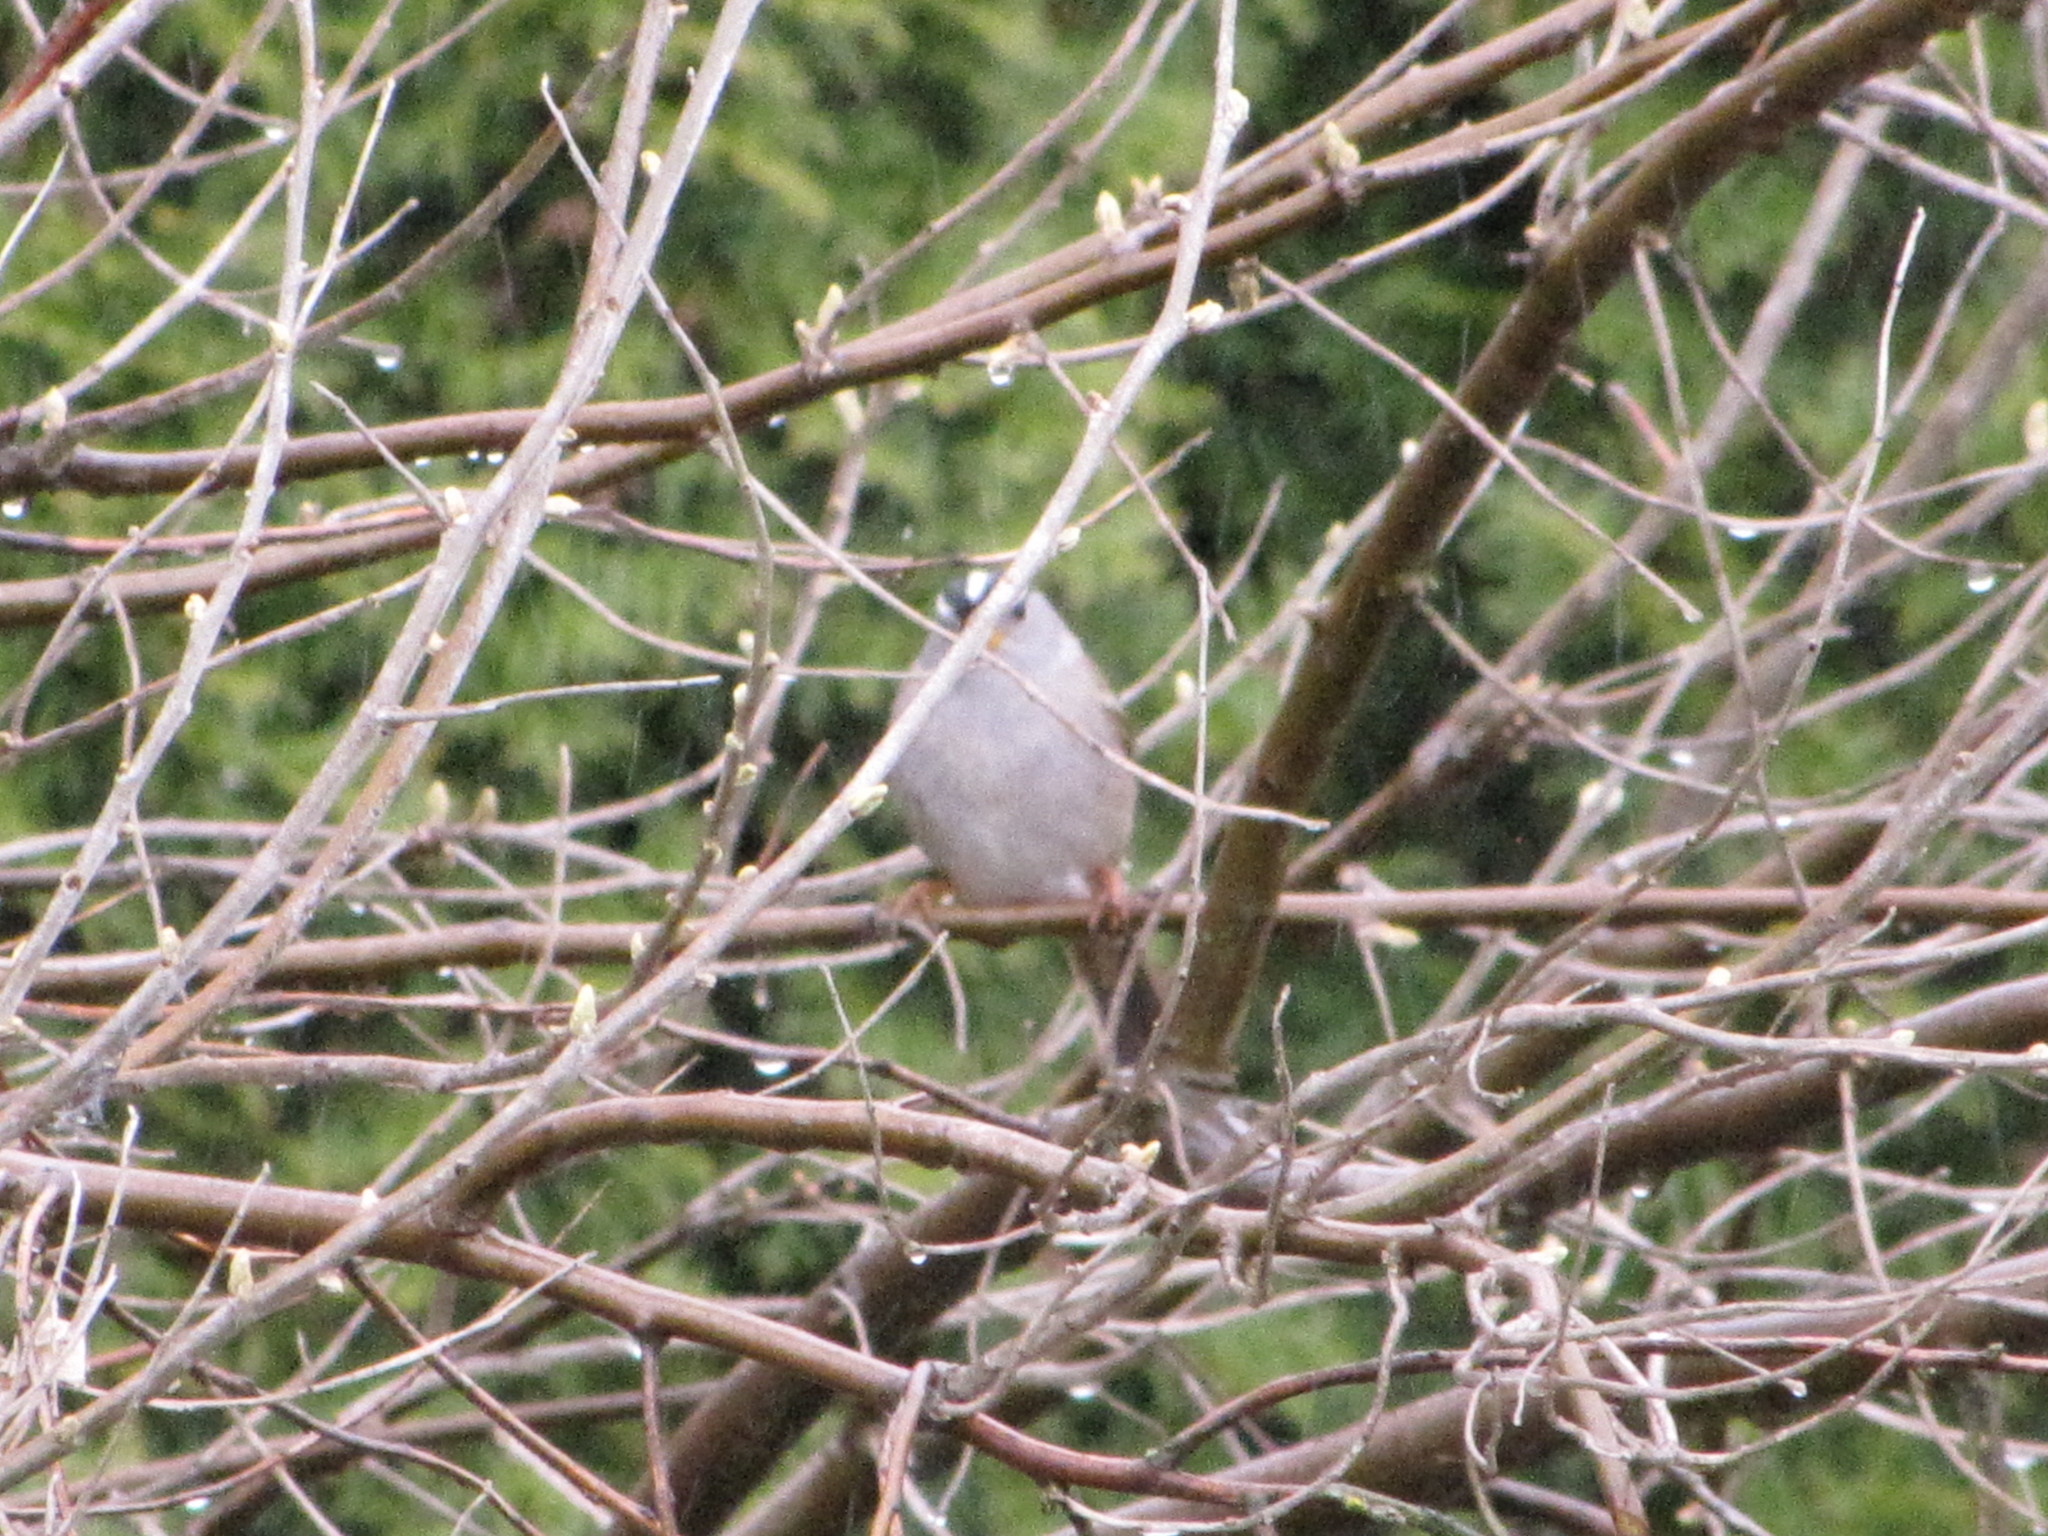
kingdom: Animalia
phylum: Chordata
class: Aves
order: Passeriformes
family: Passerellidae
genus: Zonotrichia
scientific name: Zonotrichia leucophrys
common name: White-crowned sparrow
